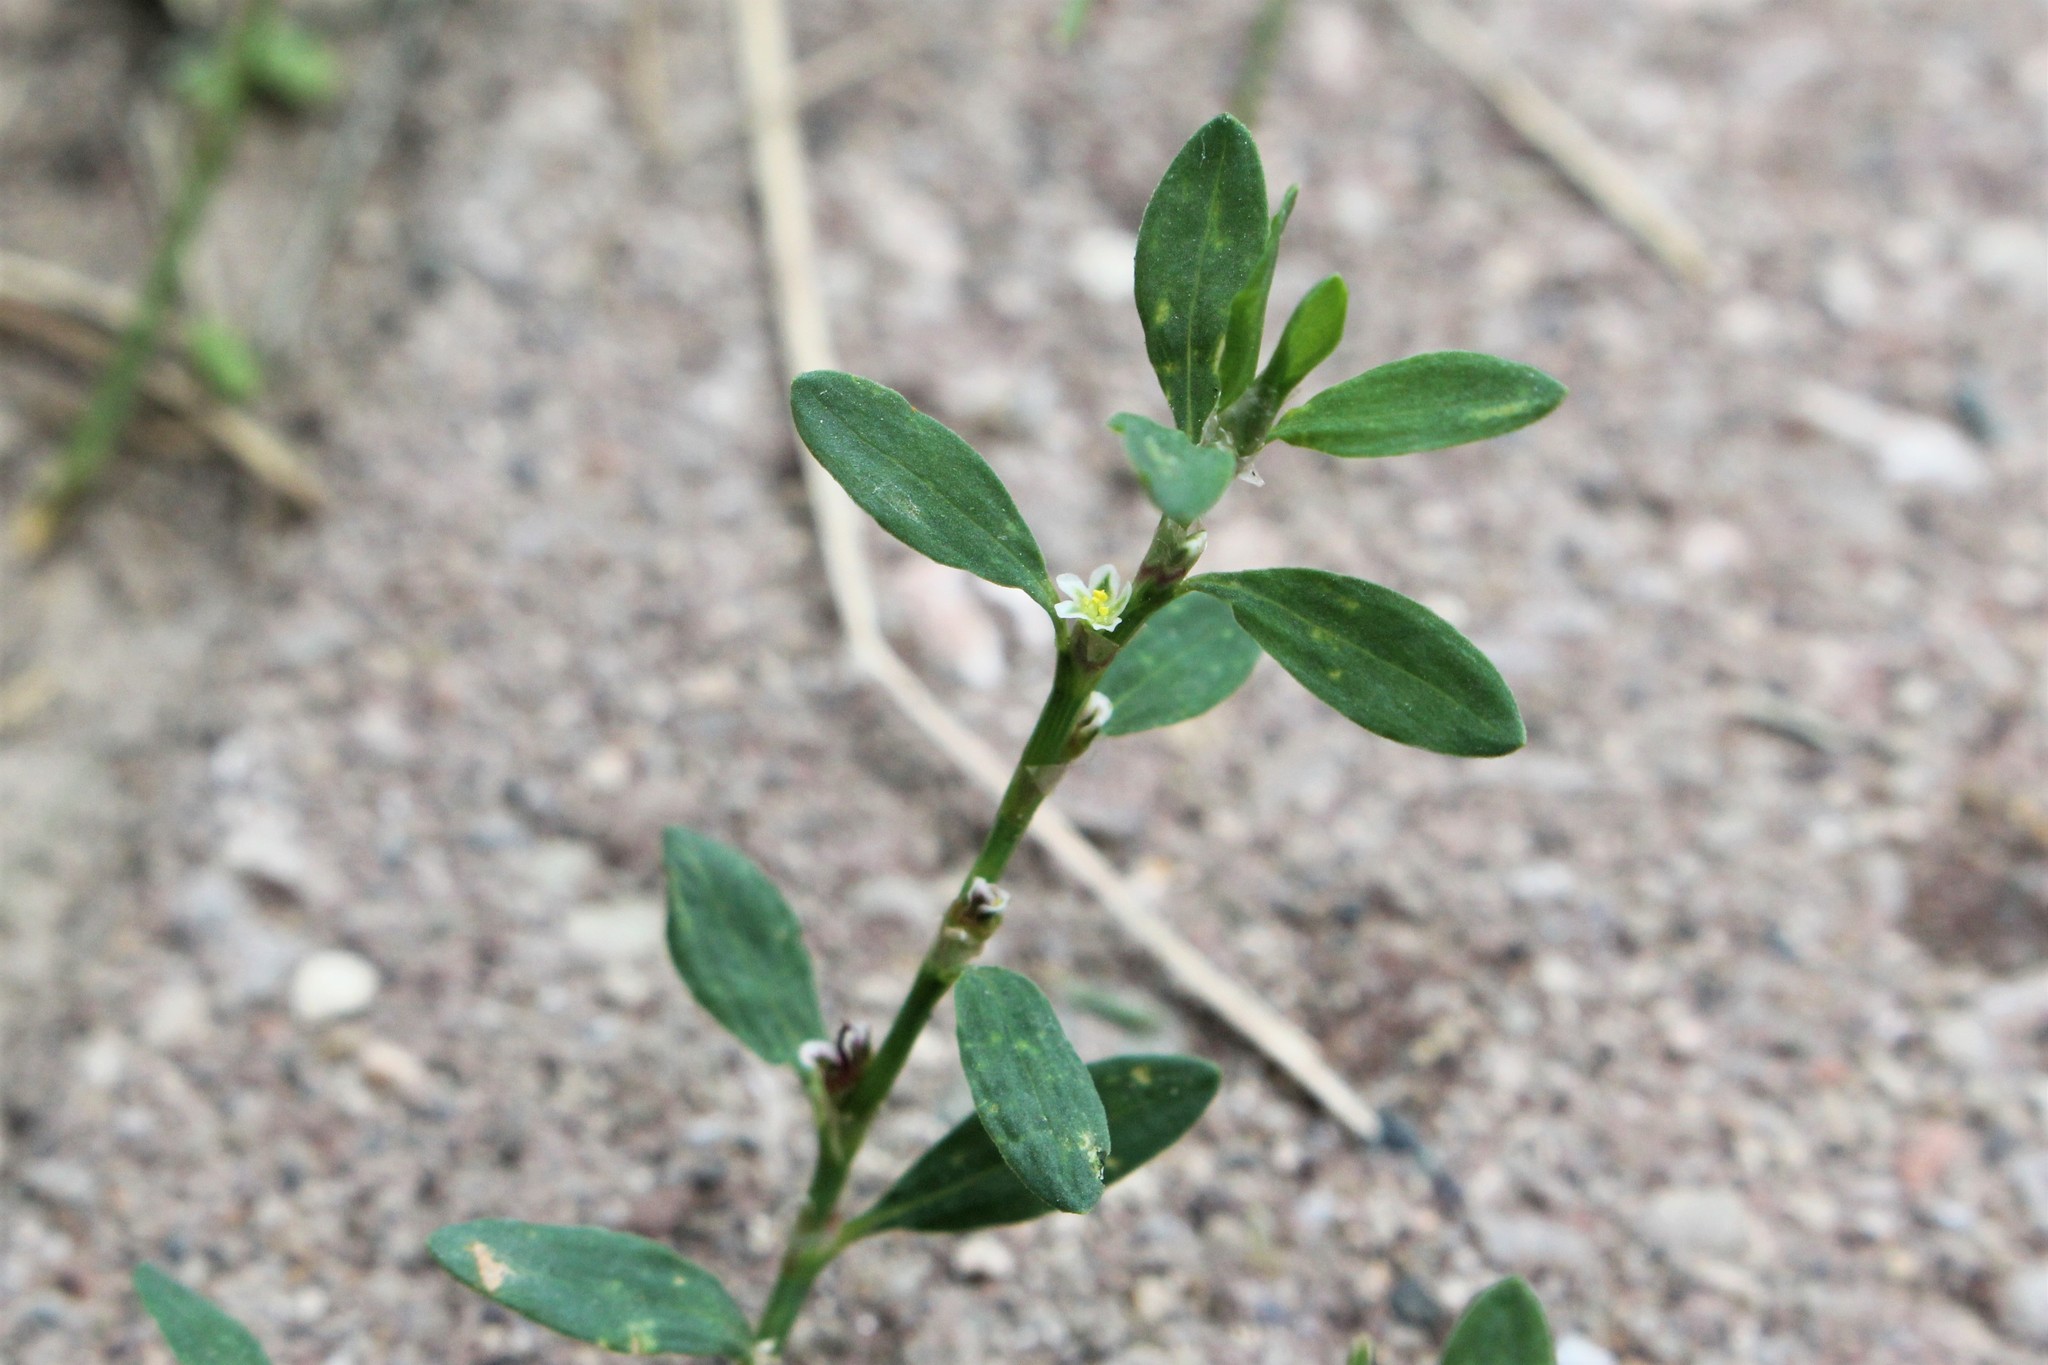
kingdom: Plantae
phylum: Tracheophyta
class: Magnoliopsida
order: Caryophyllales
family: Polygonaceae
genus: Polygonum
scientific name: Polygonum aviculare
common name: Prostrate knotweed
